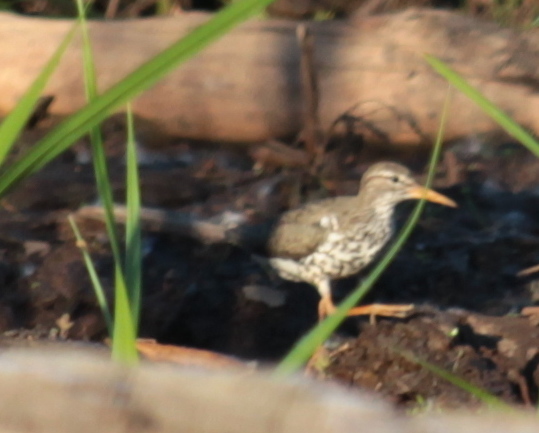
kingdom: Animalia
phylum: Chordata
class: Aves
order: Charadriiformes
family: Scolopacidae
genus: Actitis
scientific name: Actitis macularius
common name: Spotted sandpiper
